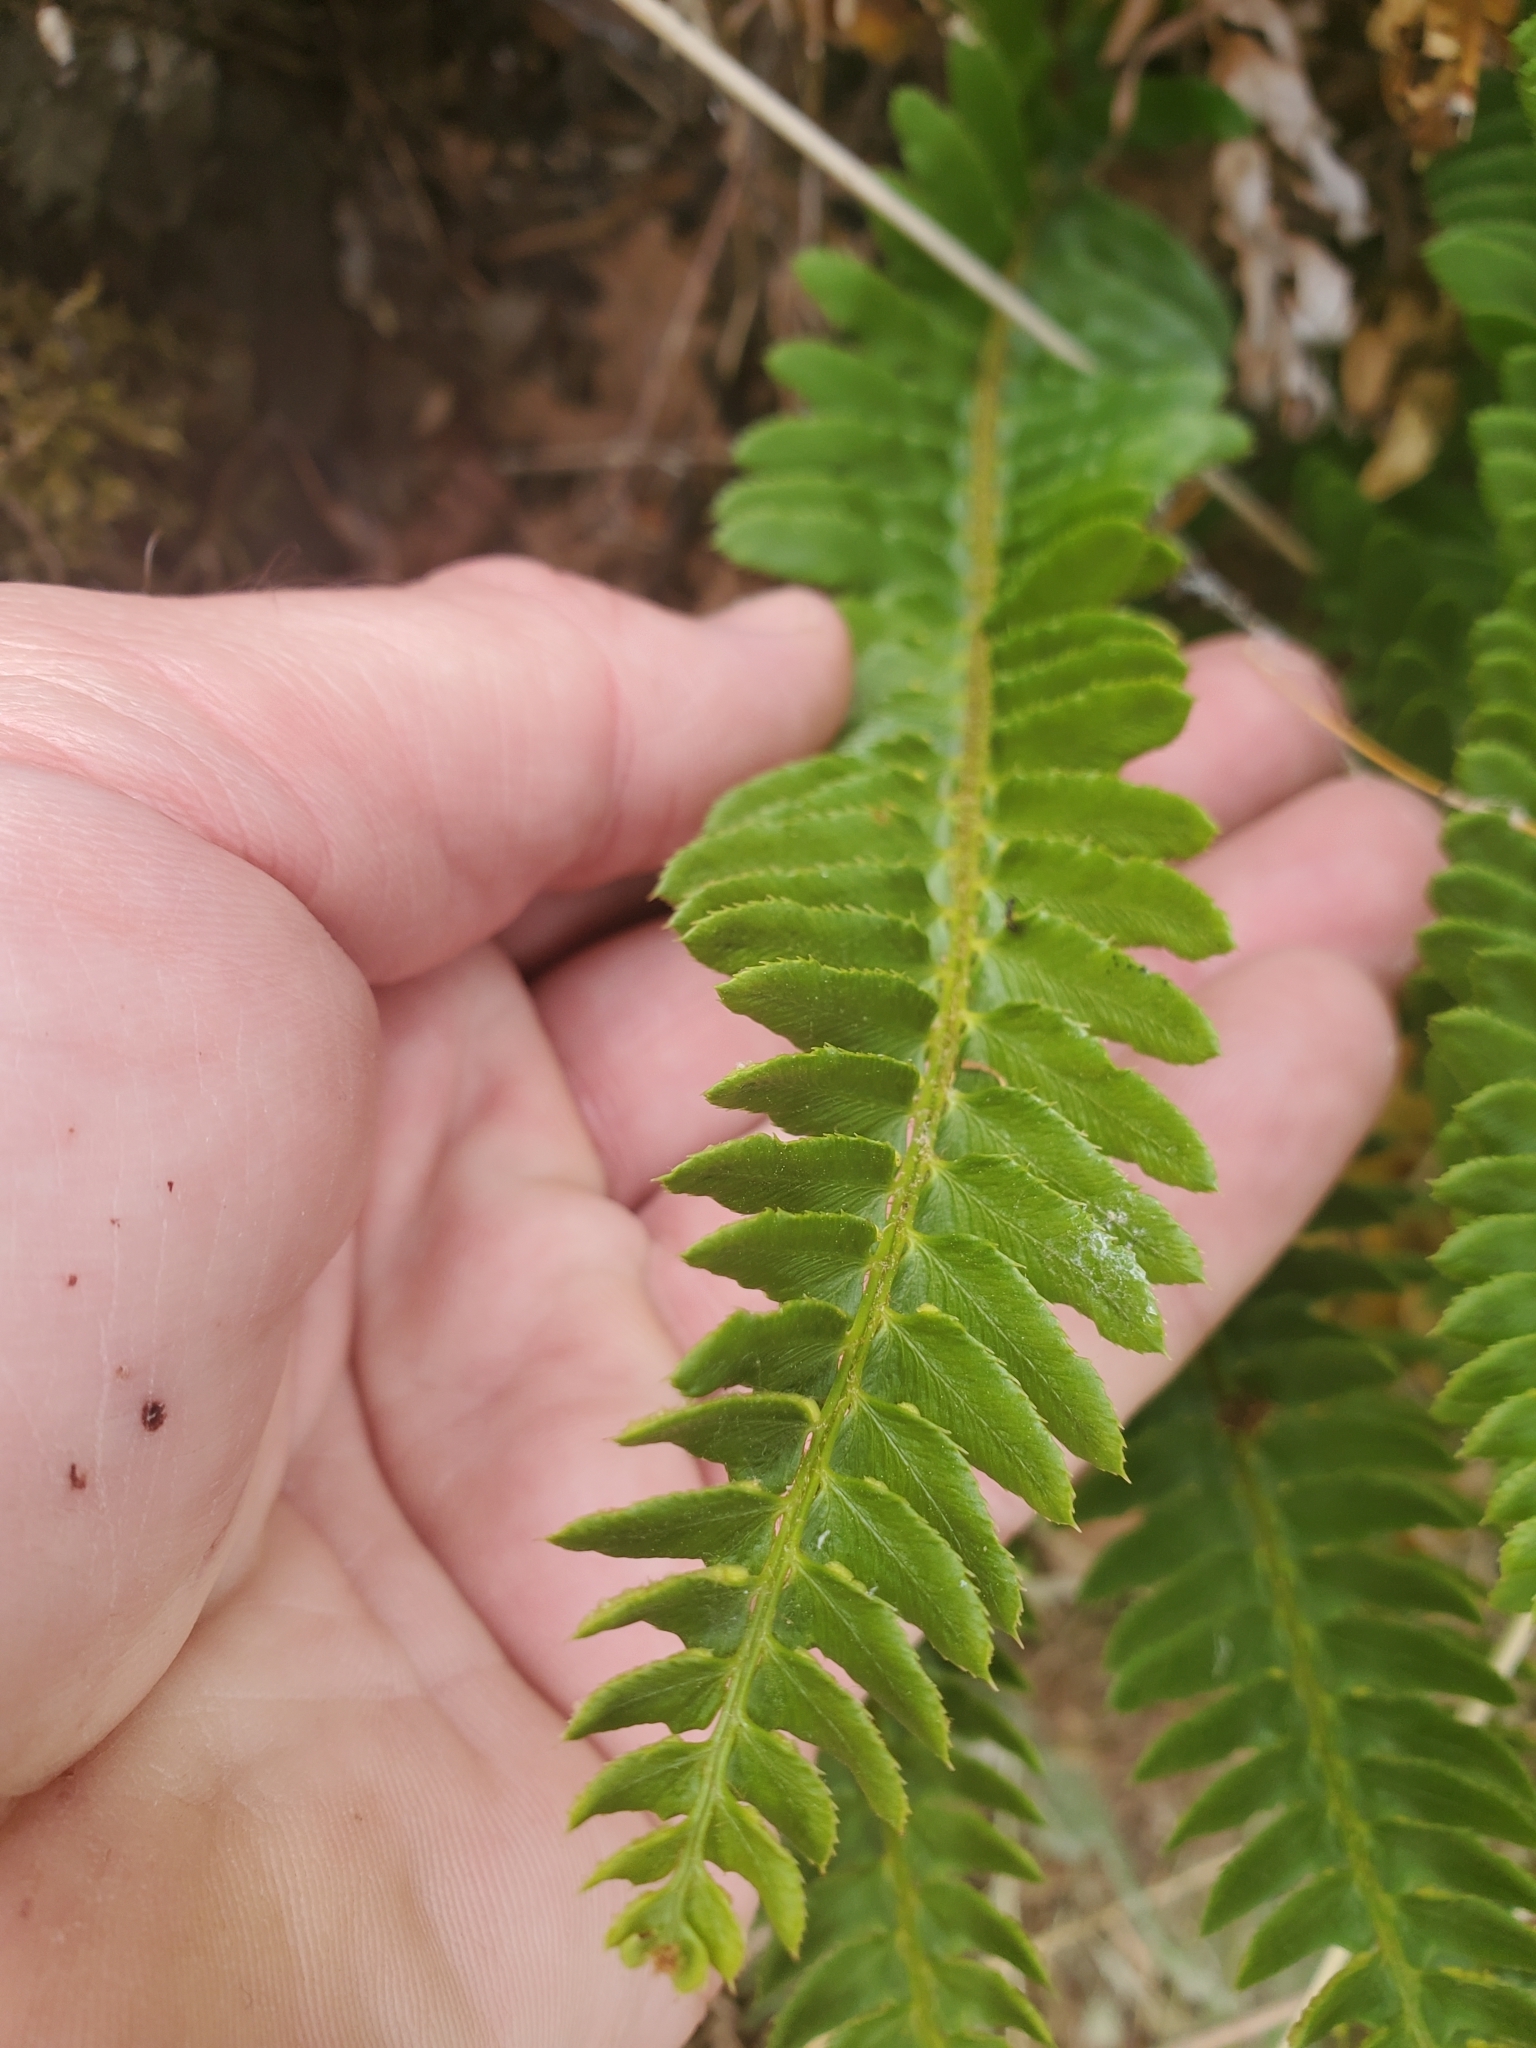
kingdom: Plantae
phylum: Tracheophyta
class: Polypodiopsida
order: Polypodiales
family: Dryopteridaceae
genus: Polystichum
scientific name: Polystichum imbricans
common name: Dwarf western sword fern
